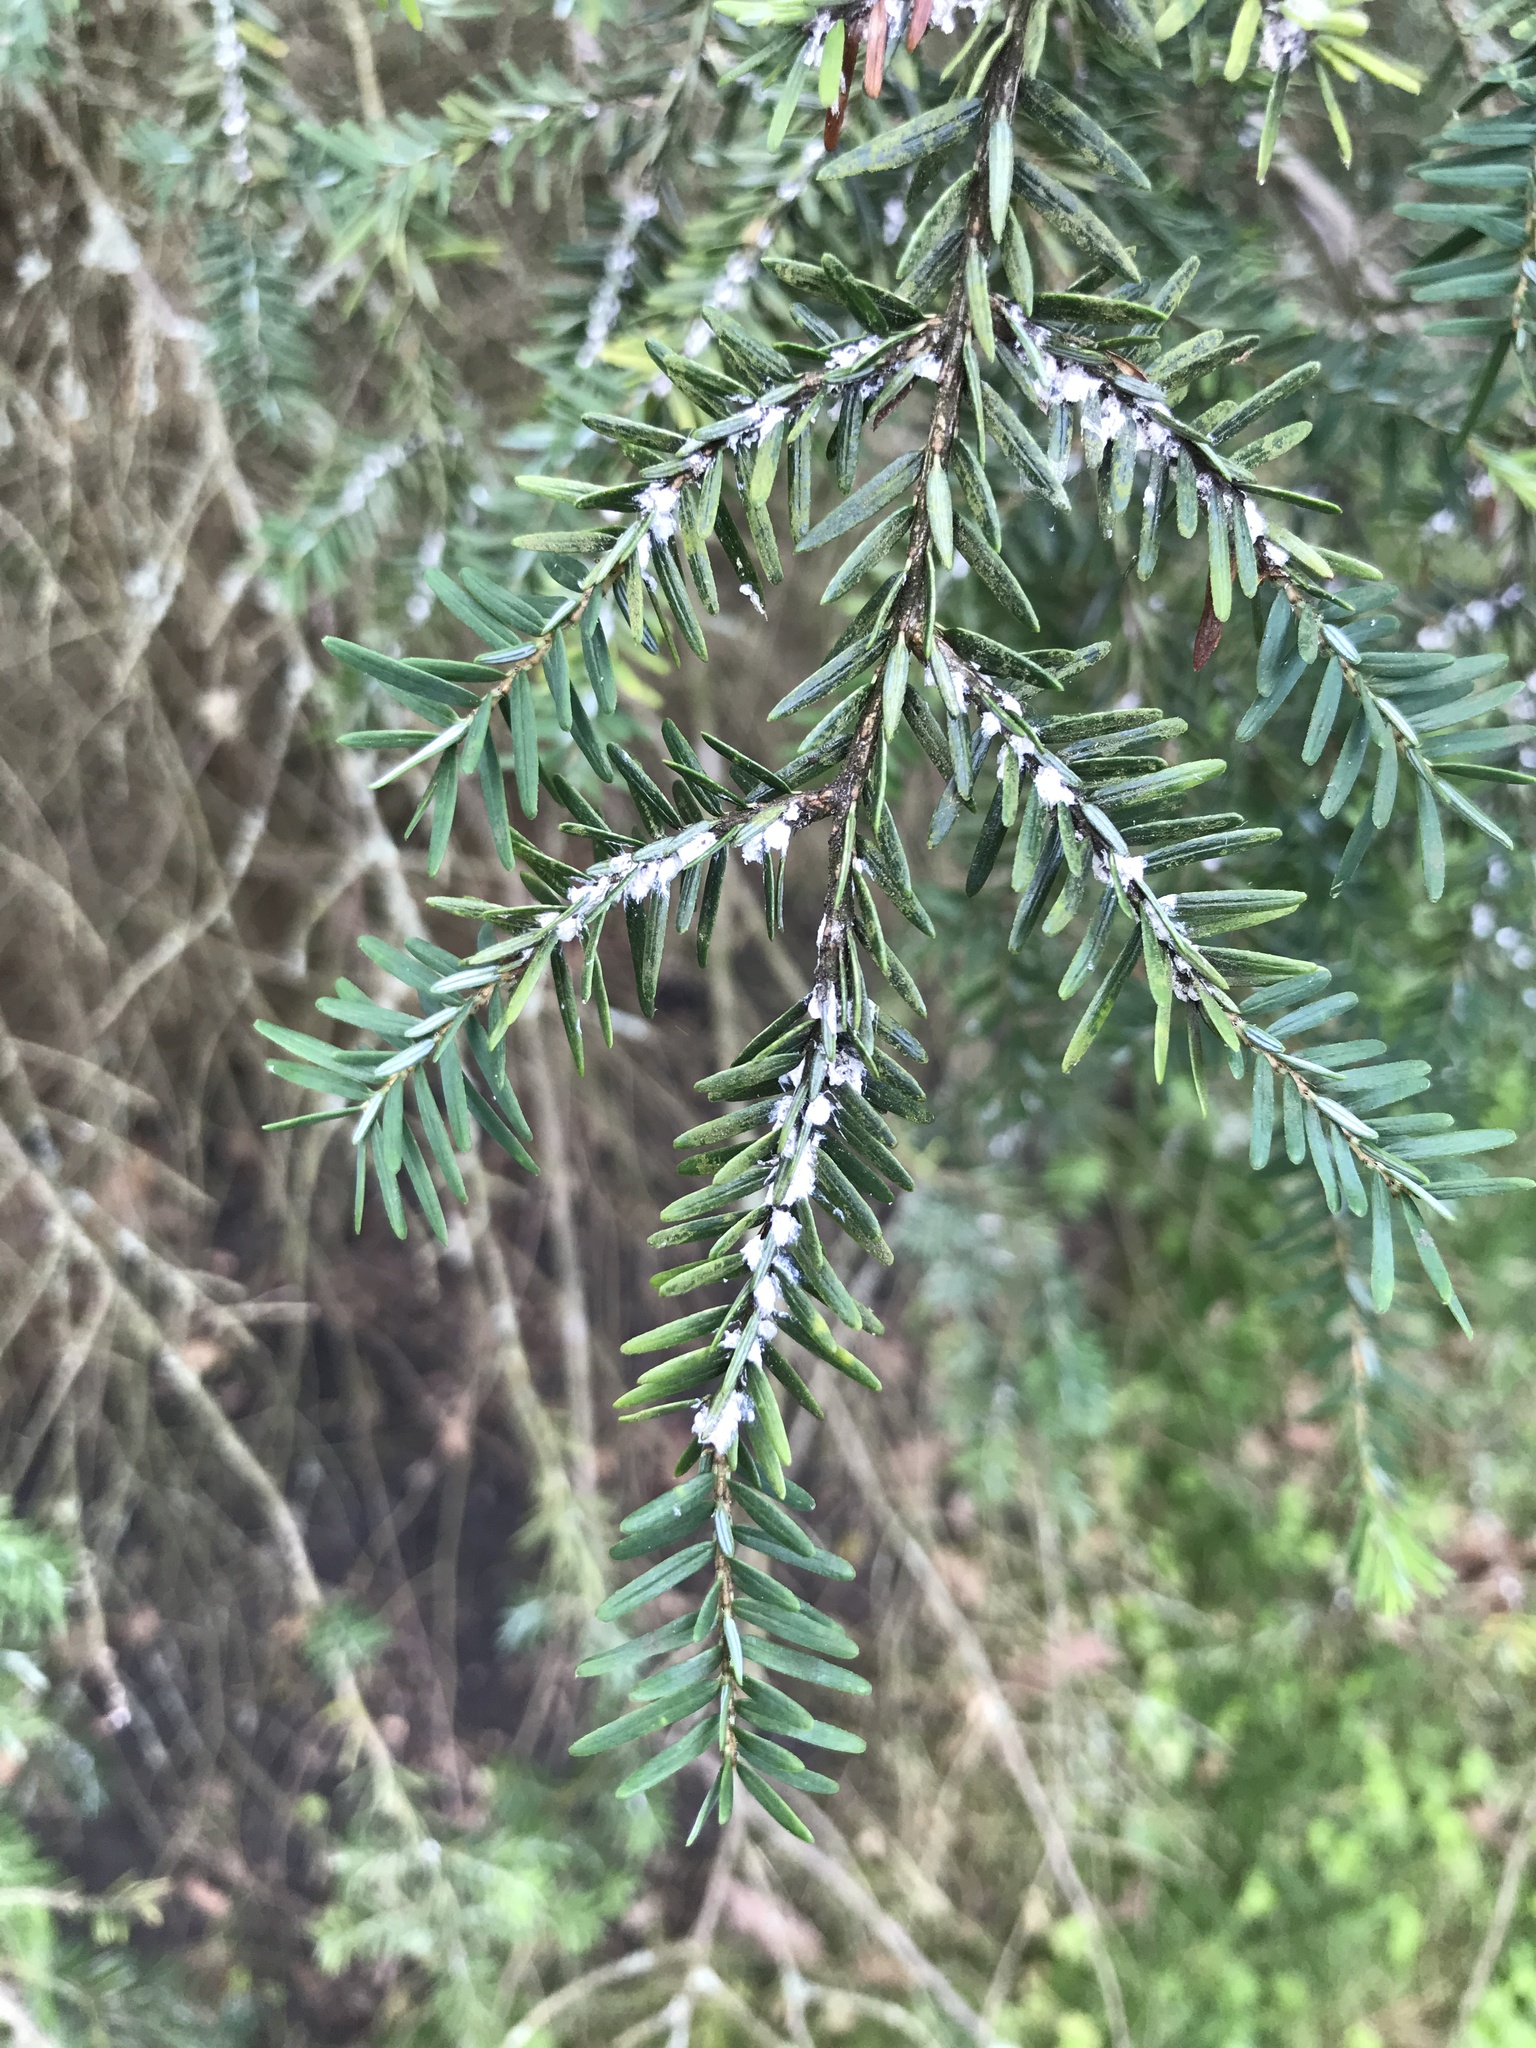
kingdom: Animalia
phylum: Arthropoda
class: Insecta
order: Hemiptera
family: Adelgidae
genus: Adelges
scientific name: Adelges tsugae
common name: Hemlock woolly adelgid
